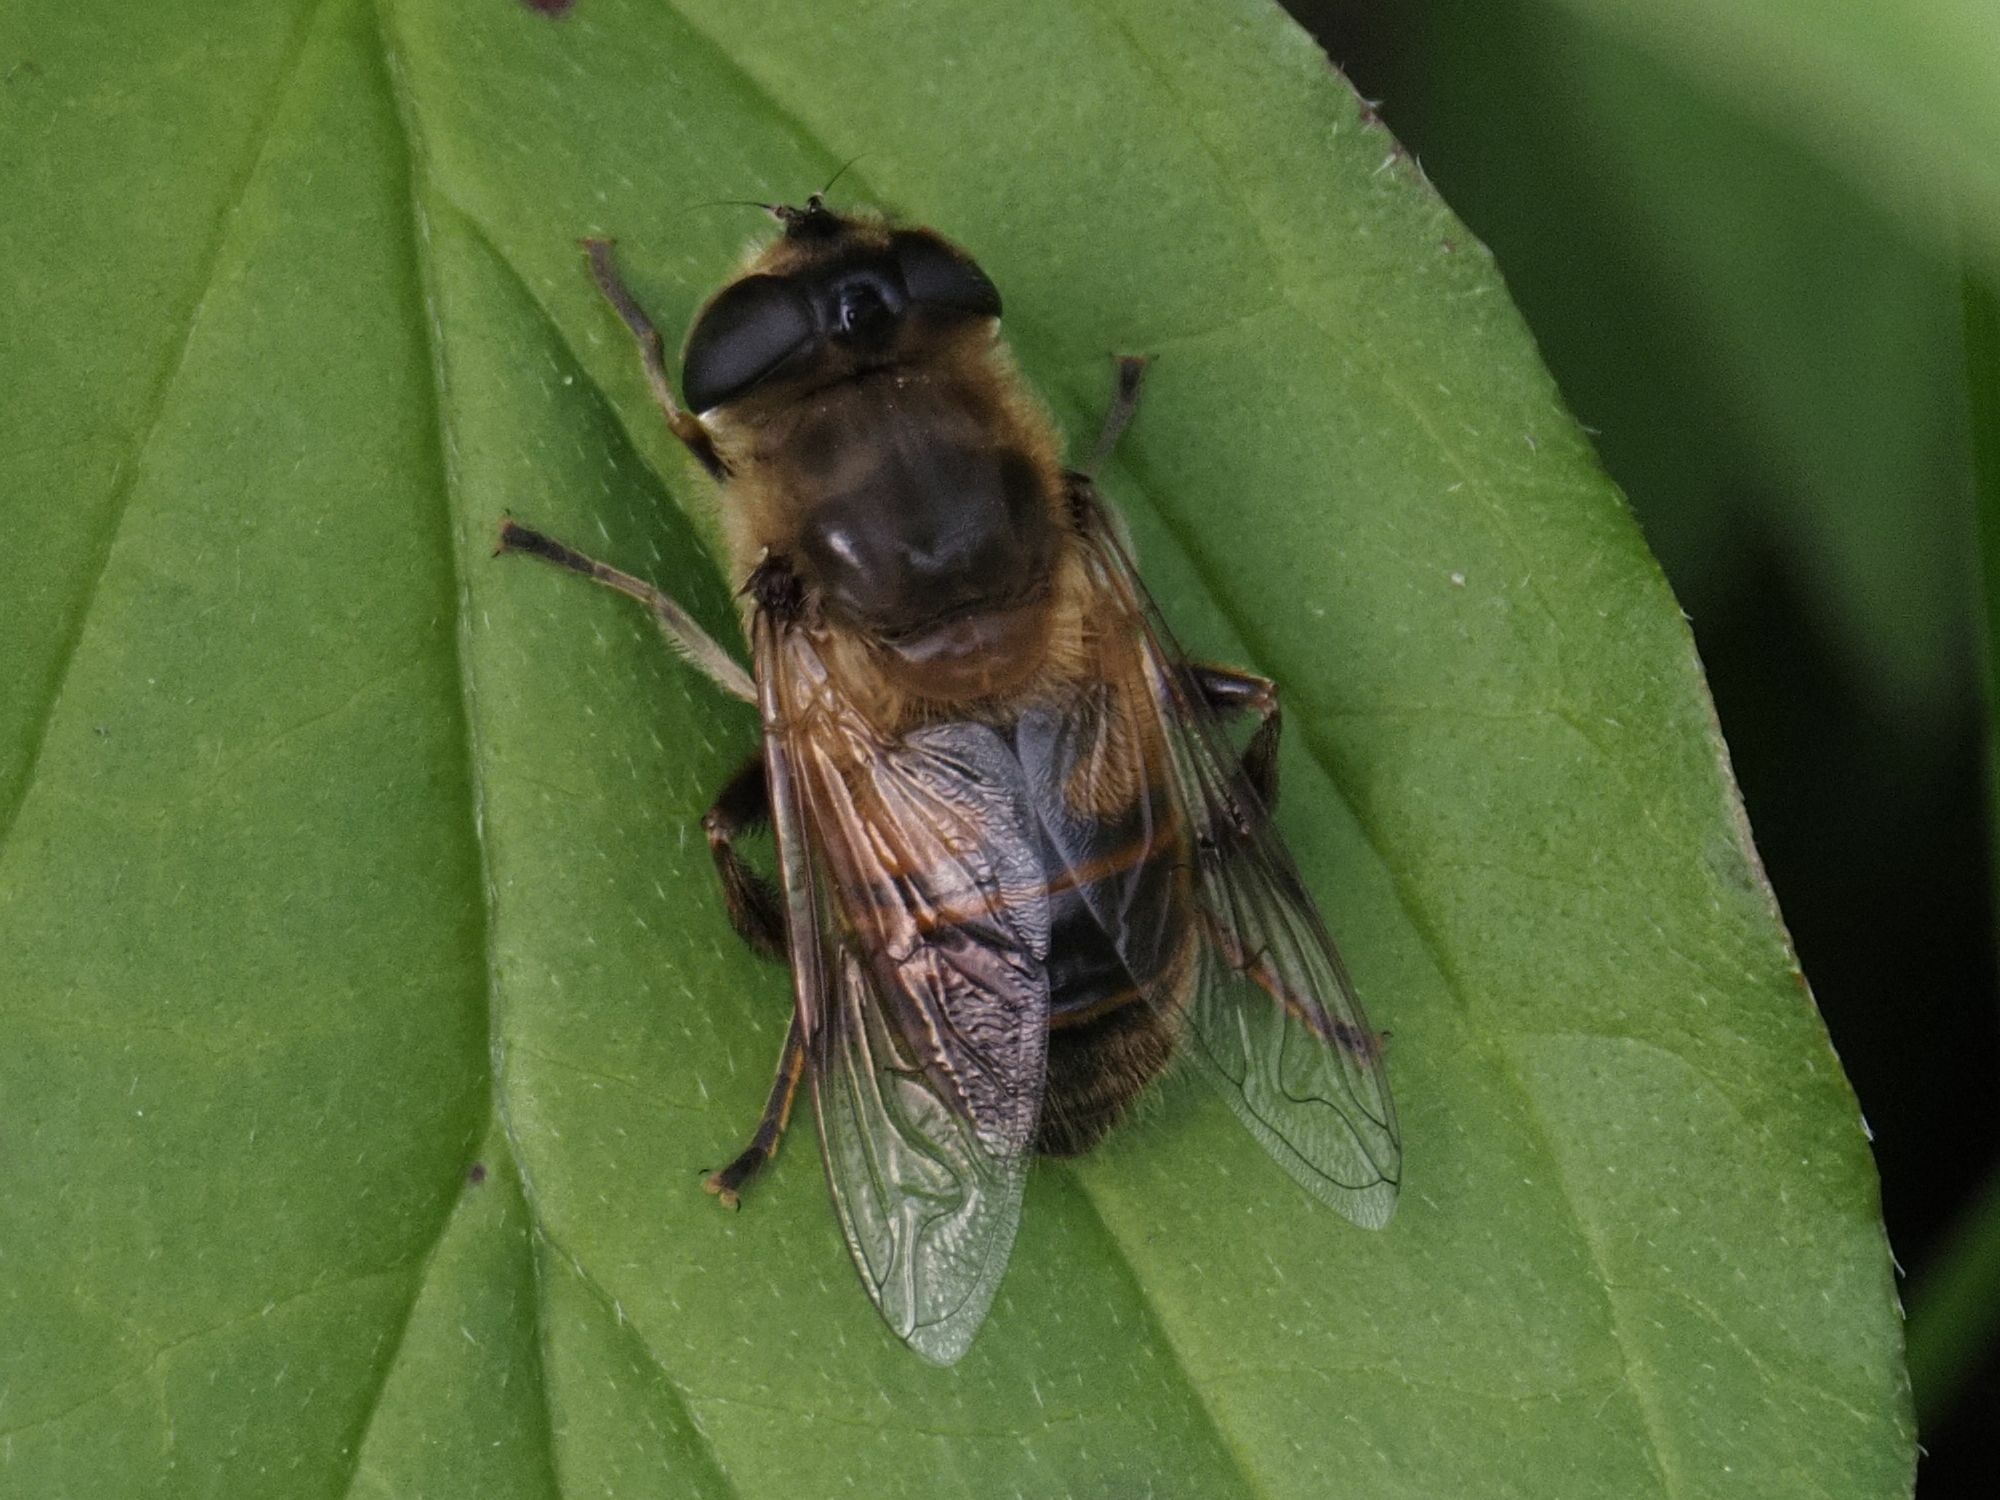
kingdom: Animalia
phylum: Arthropoda
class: Insecta
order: Diptera
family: Syrphidae
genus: Eristalis
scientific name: Eristalis tenax
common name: Drone fly
